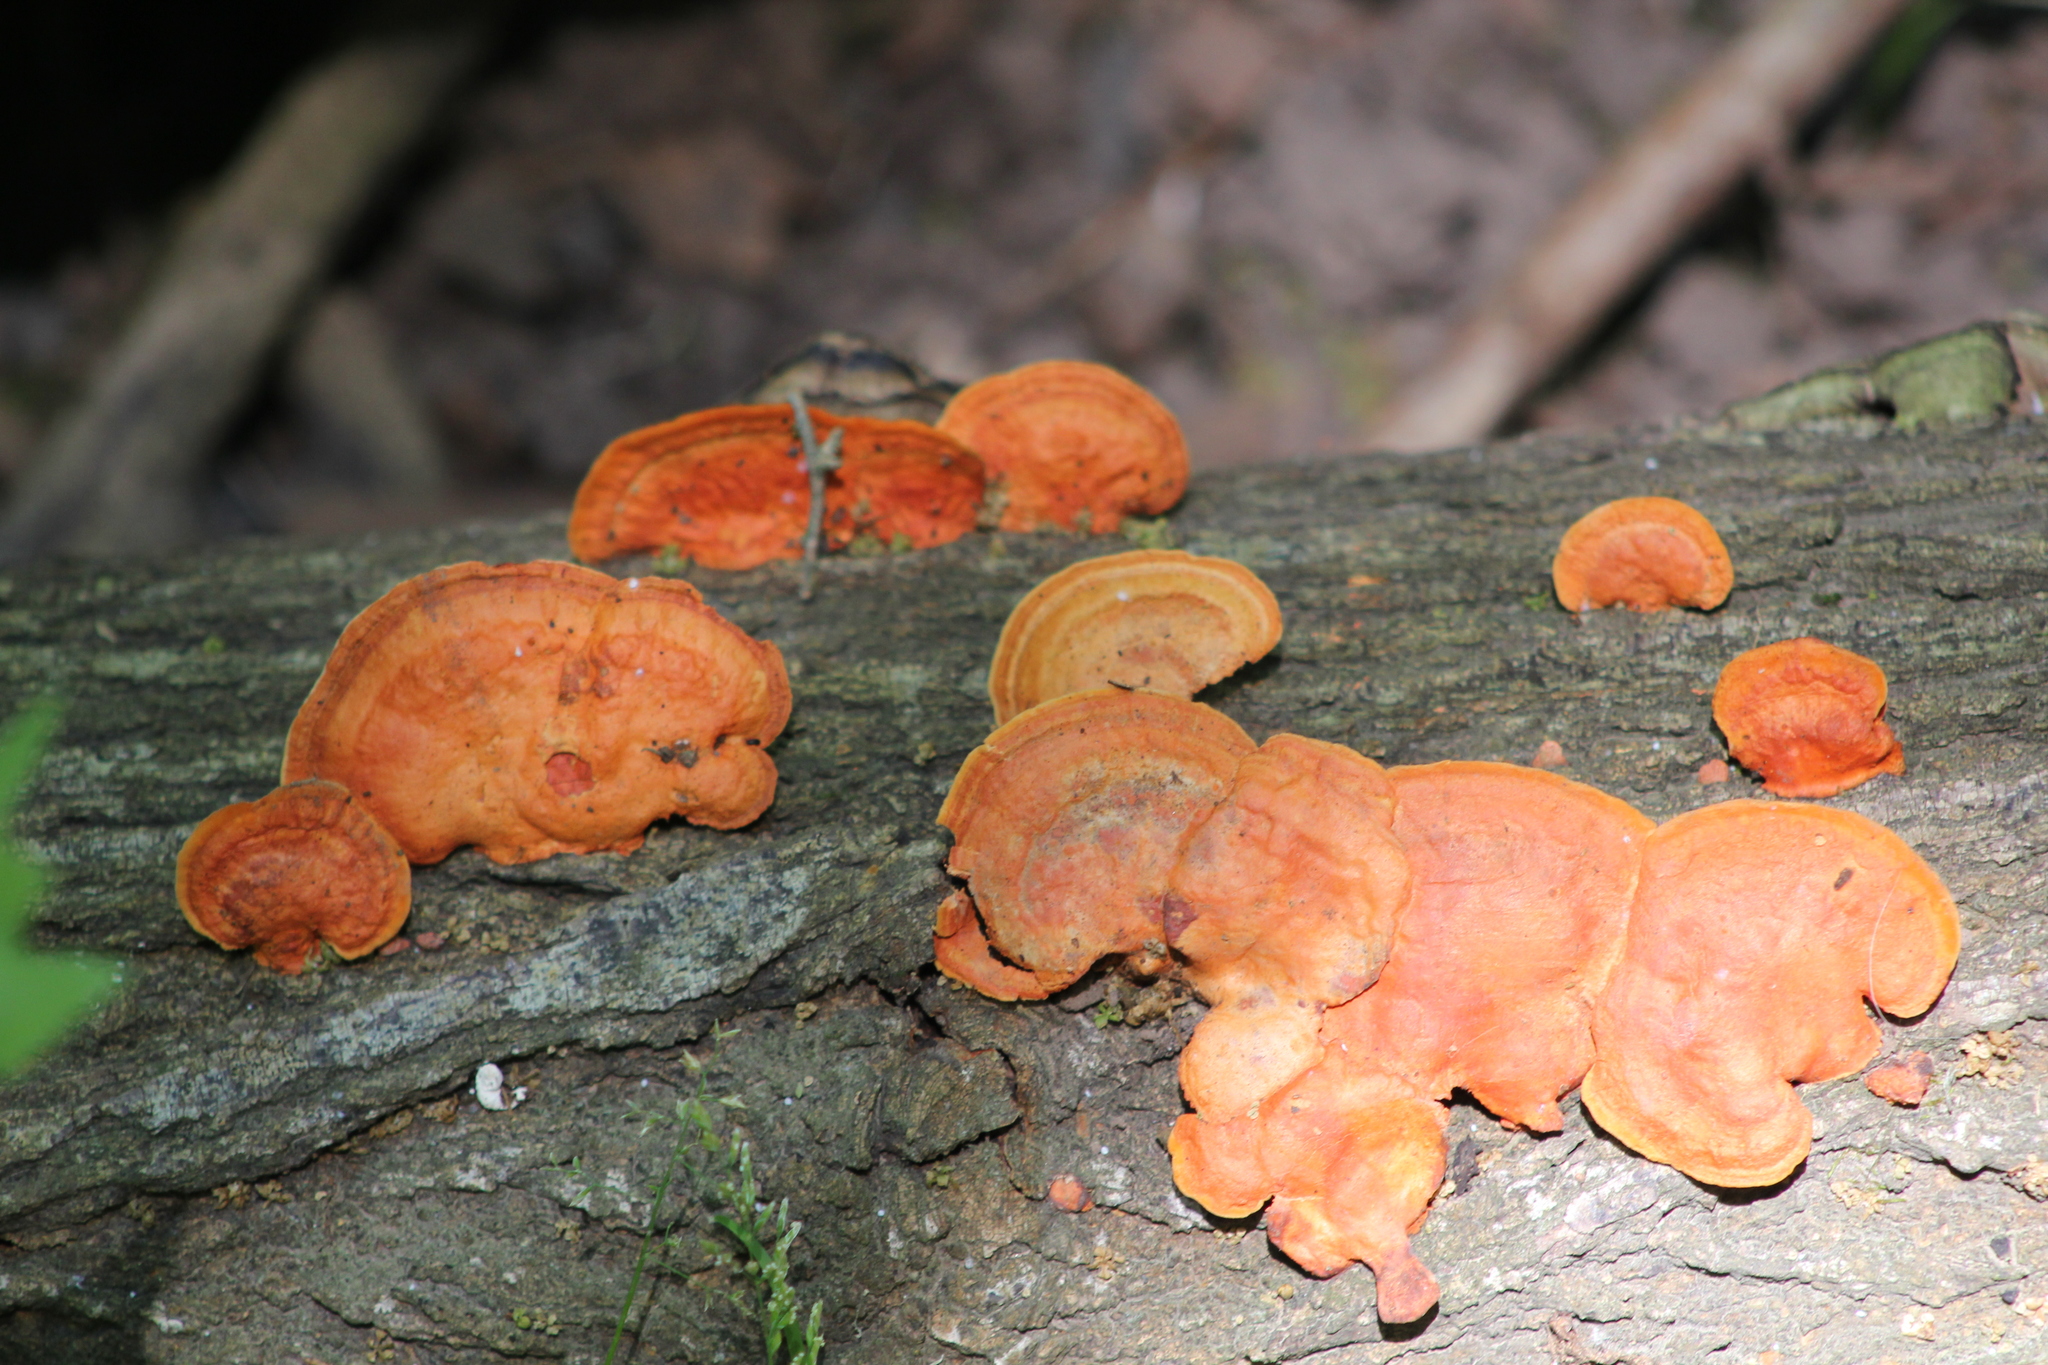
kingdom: Fungi
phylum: Basidiomycota
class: Agaricomycetes
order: Polyporales
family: Polyporaceae
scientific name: Polyporaceae
